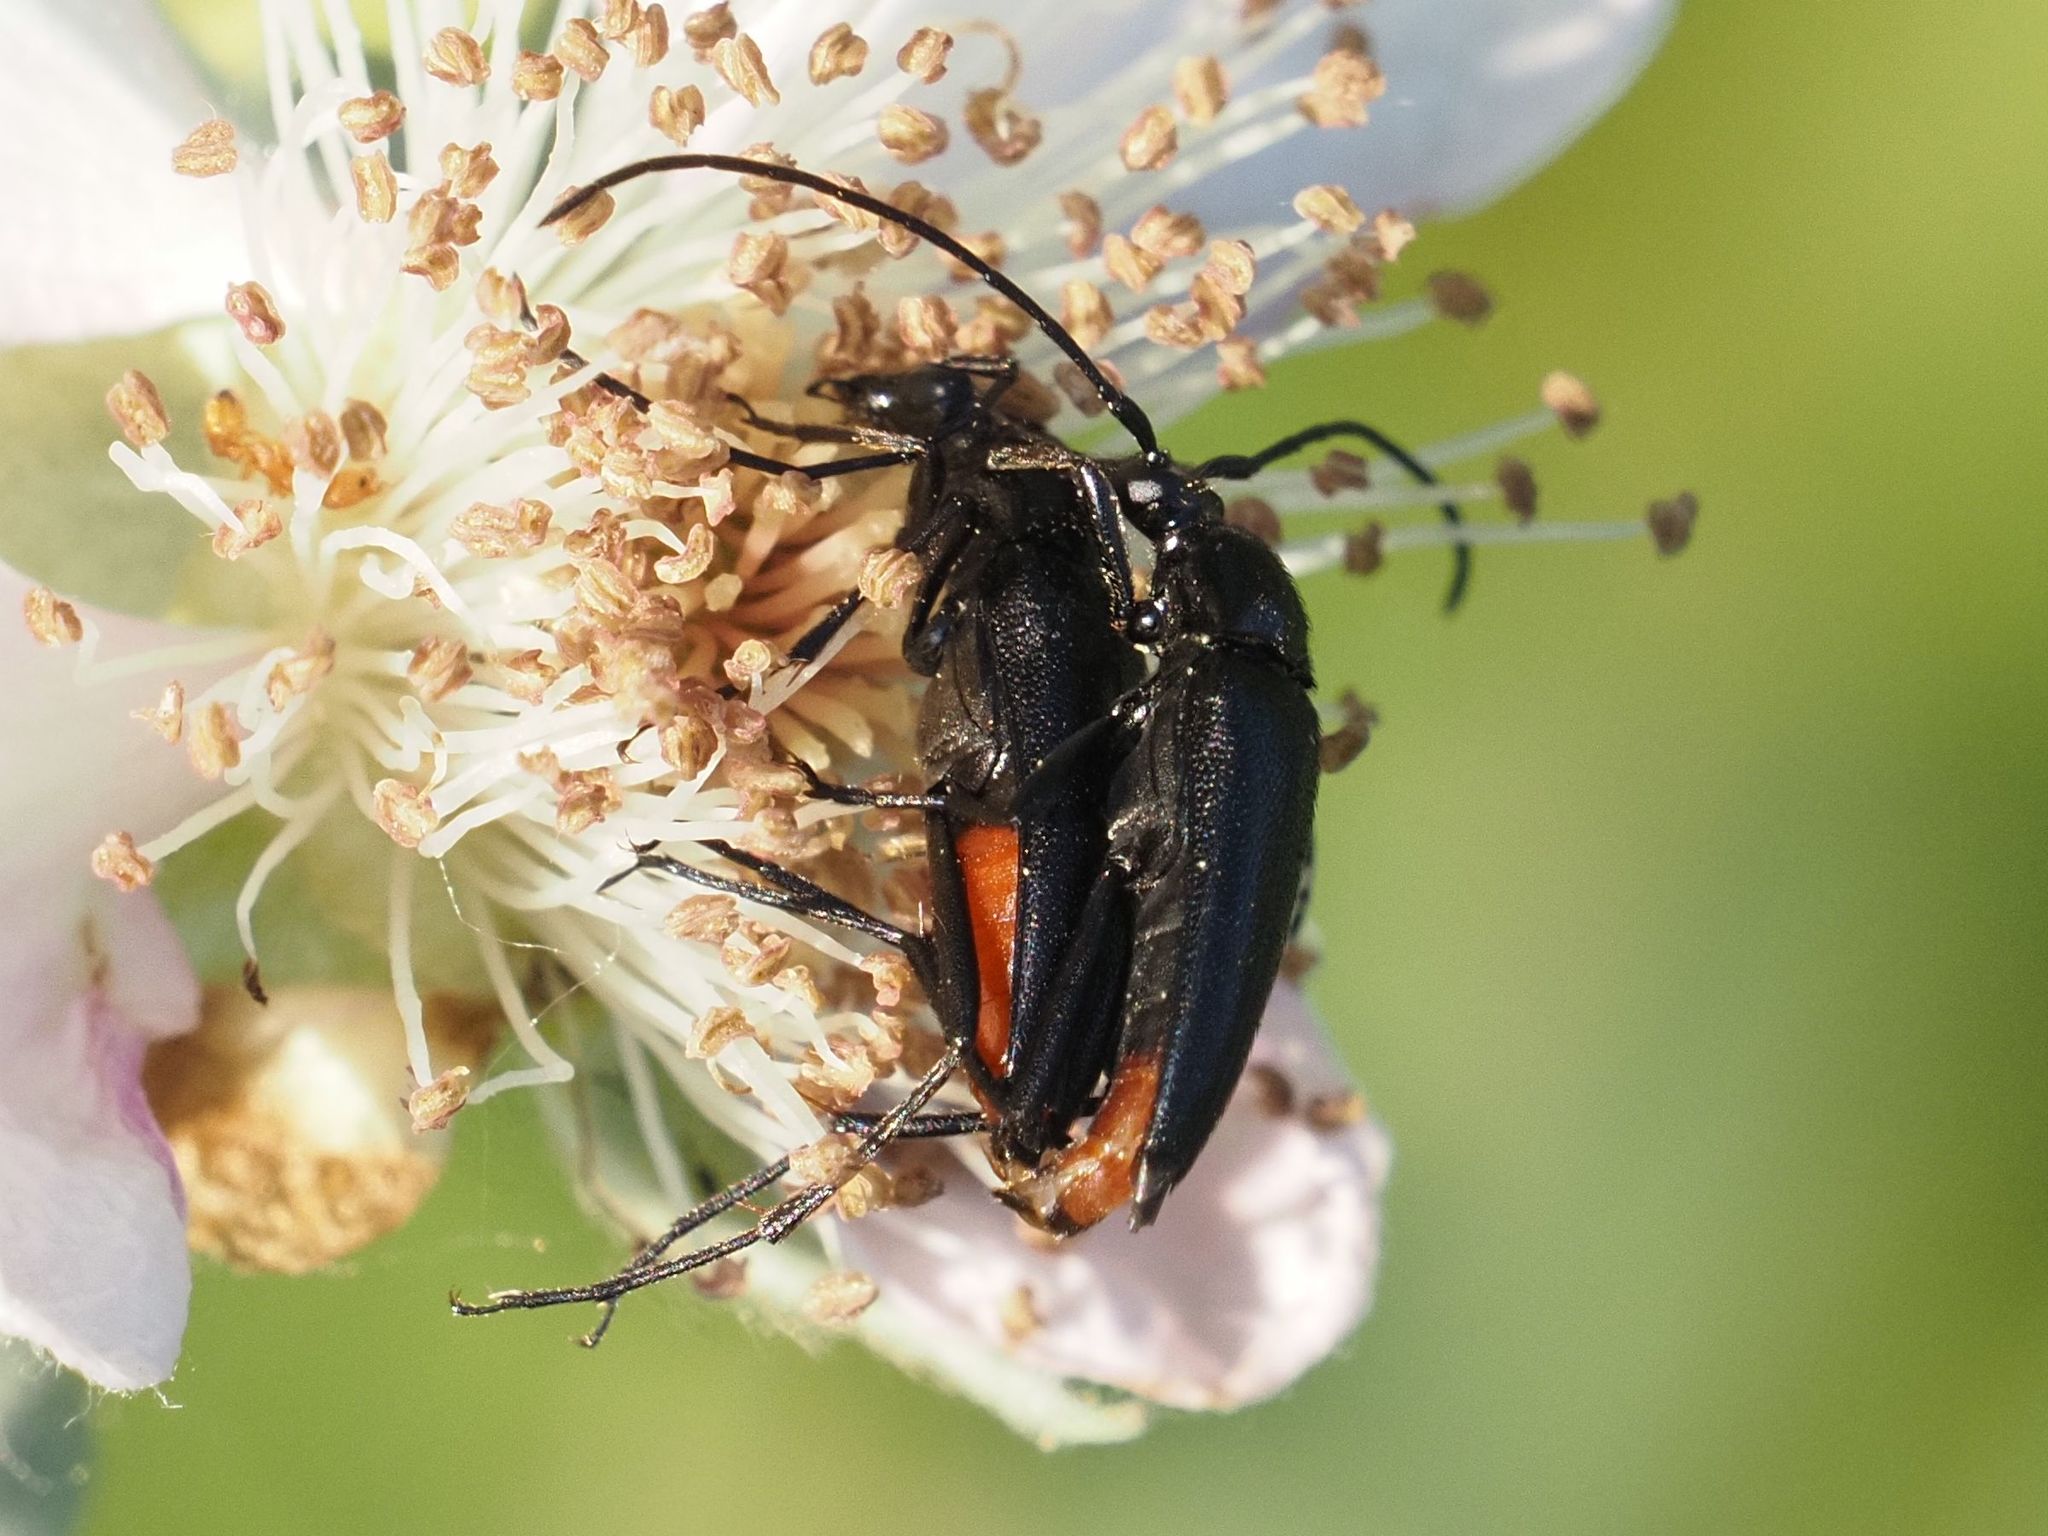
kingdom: Animalia
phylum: Arthropoda
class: Insecta
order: Coleoptera
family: Cerambycidae
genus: Stenurella
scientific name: Stenurella nigra
